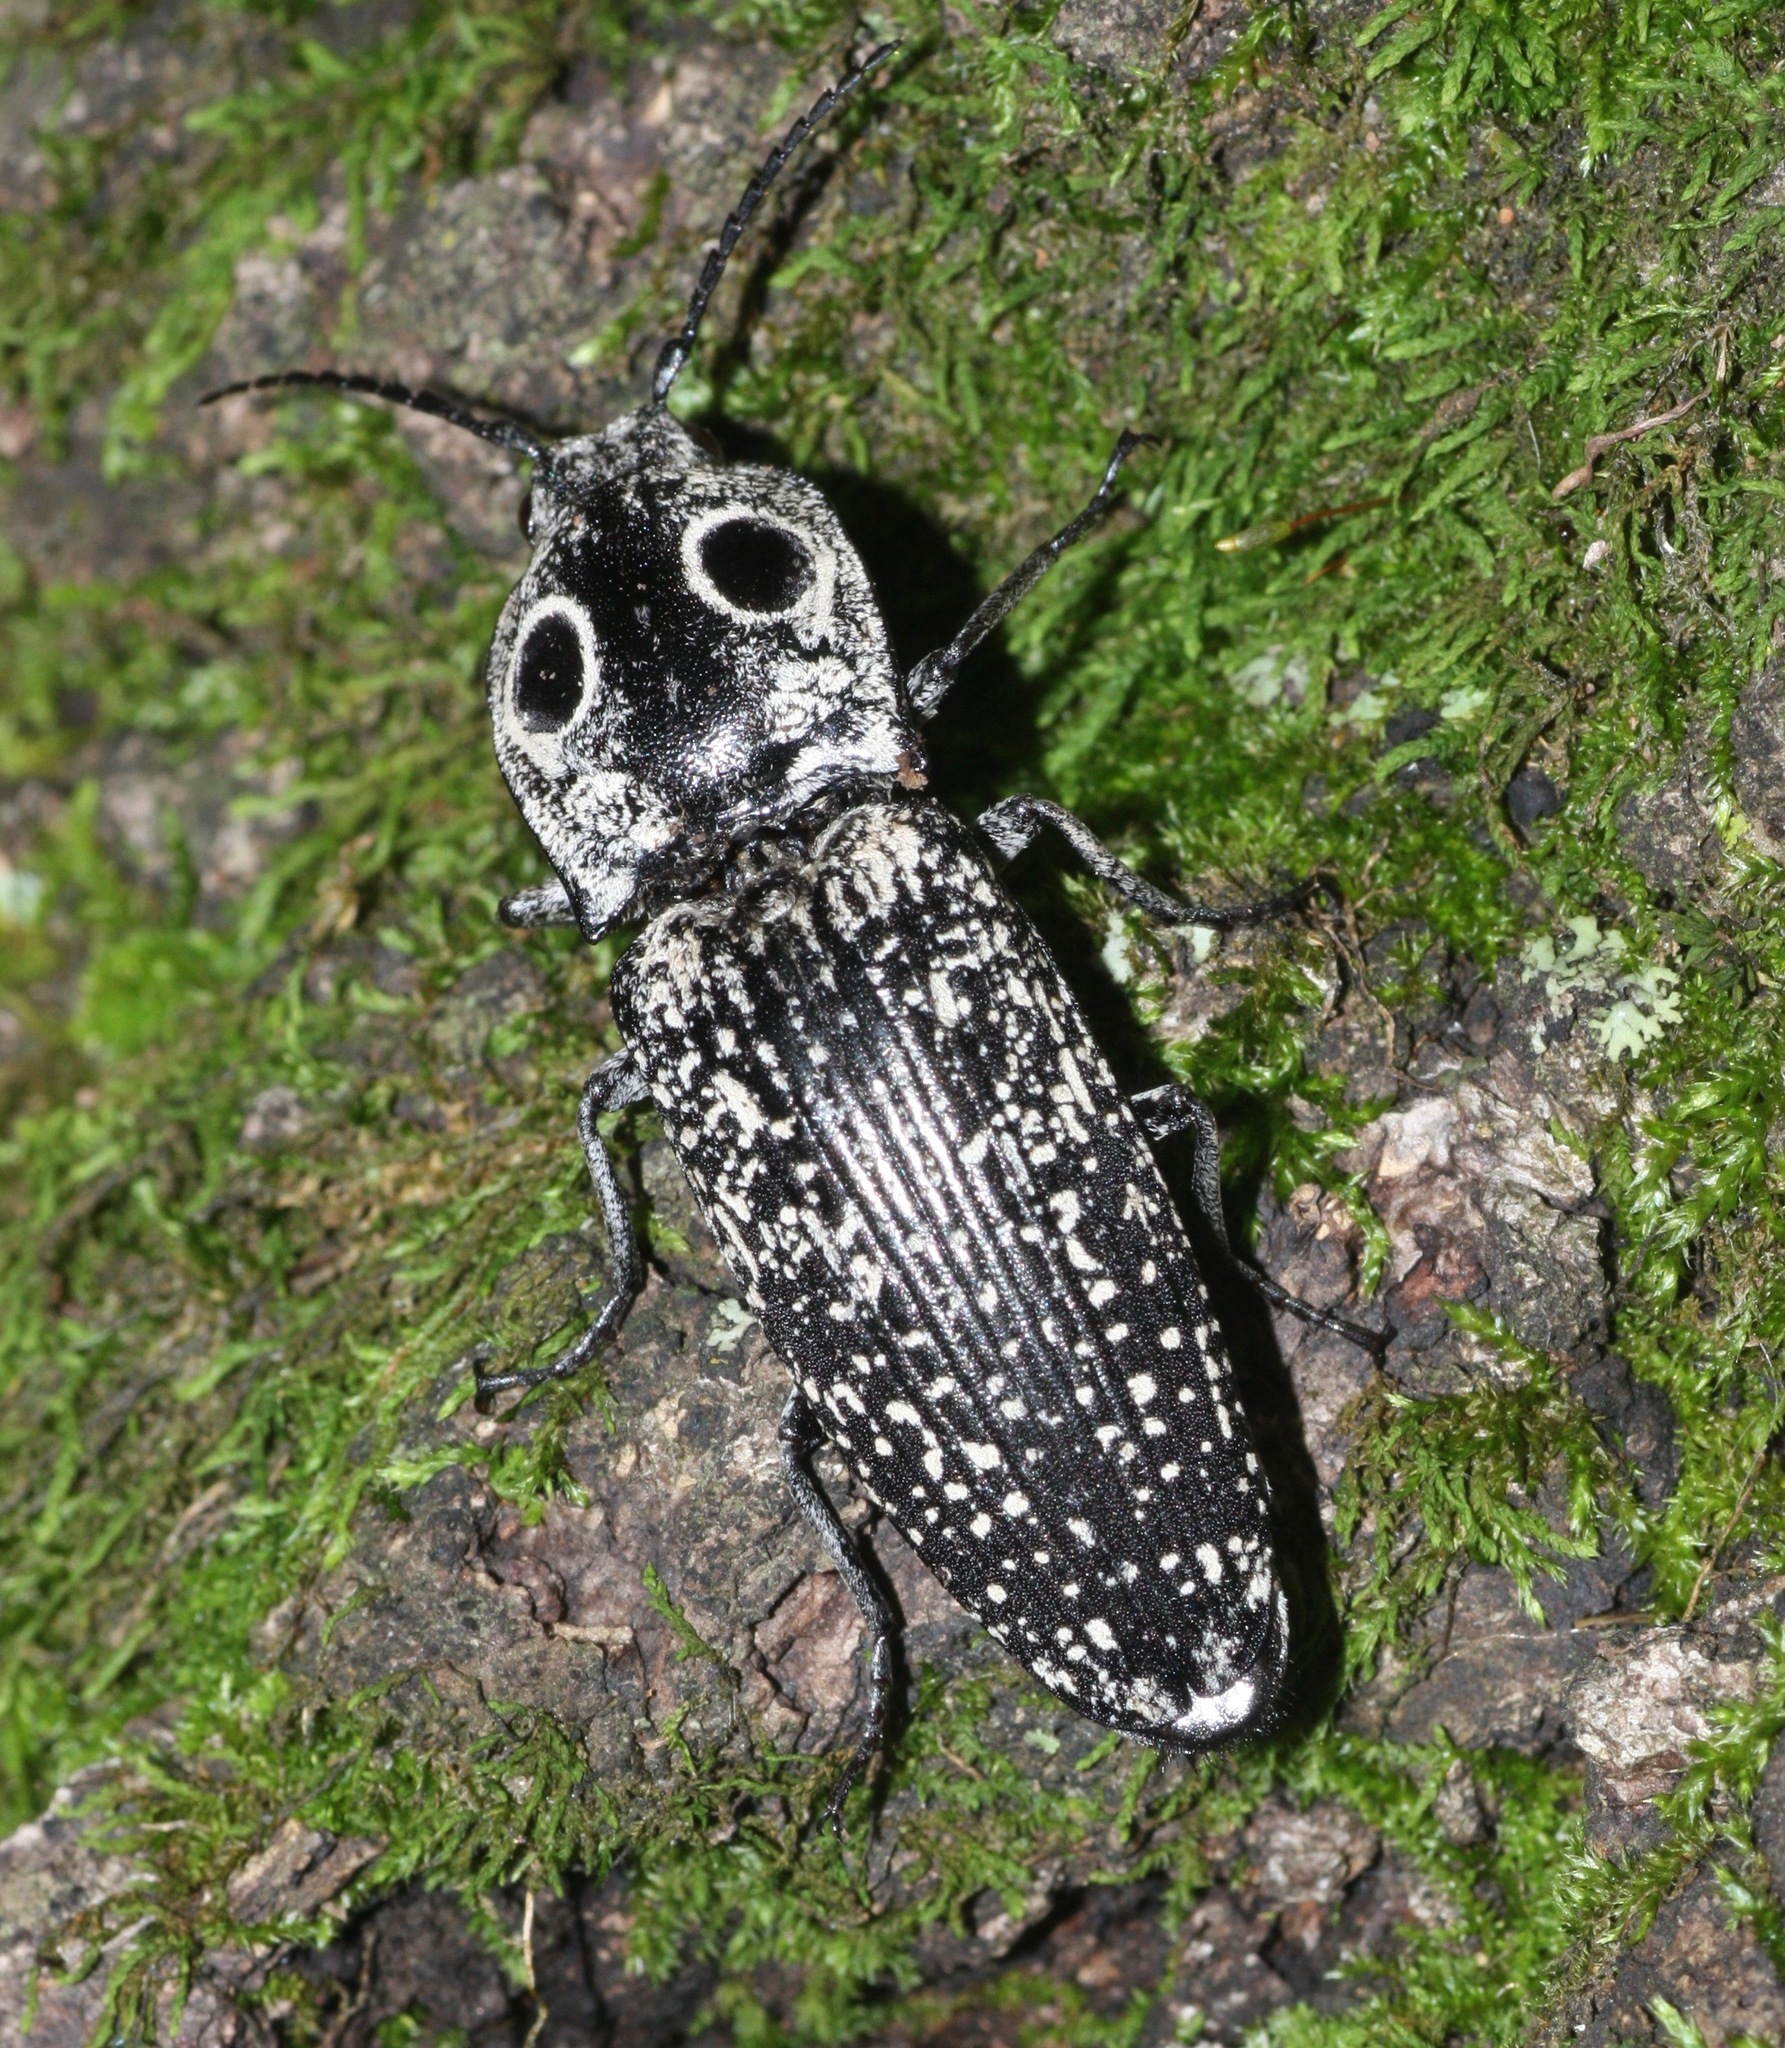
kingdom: Animalia
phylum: Arthropoda
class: Insecta
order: Coleoptera
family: Elateridae
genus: Alaus
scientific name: Alaus oculatus
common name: Eastern eyed click beetle
